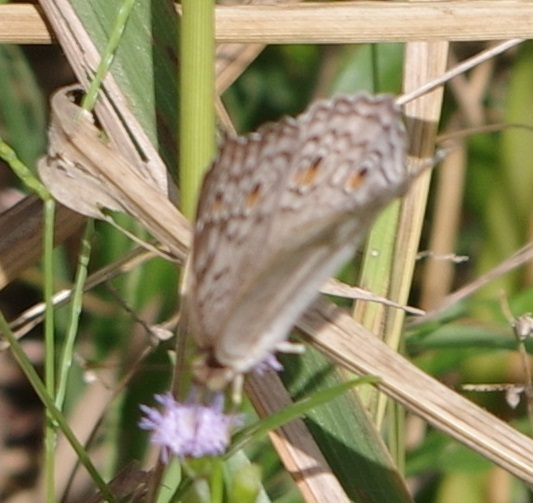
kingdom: Animalia
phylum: Arthropoda
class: Insecta
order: Lepidoptera
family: Nymphalidae
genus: Junonia
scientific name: Junonia atlites
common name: Grey pansy
